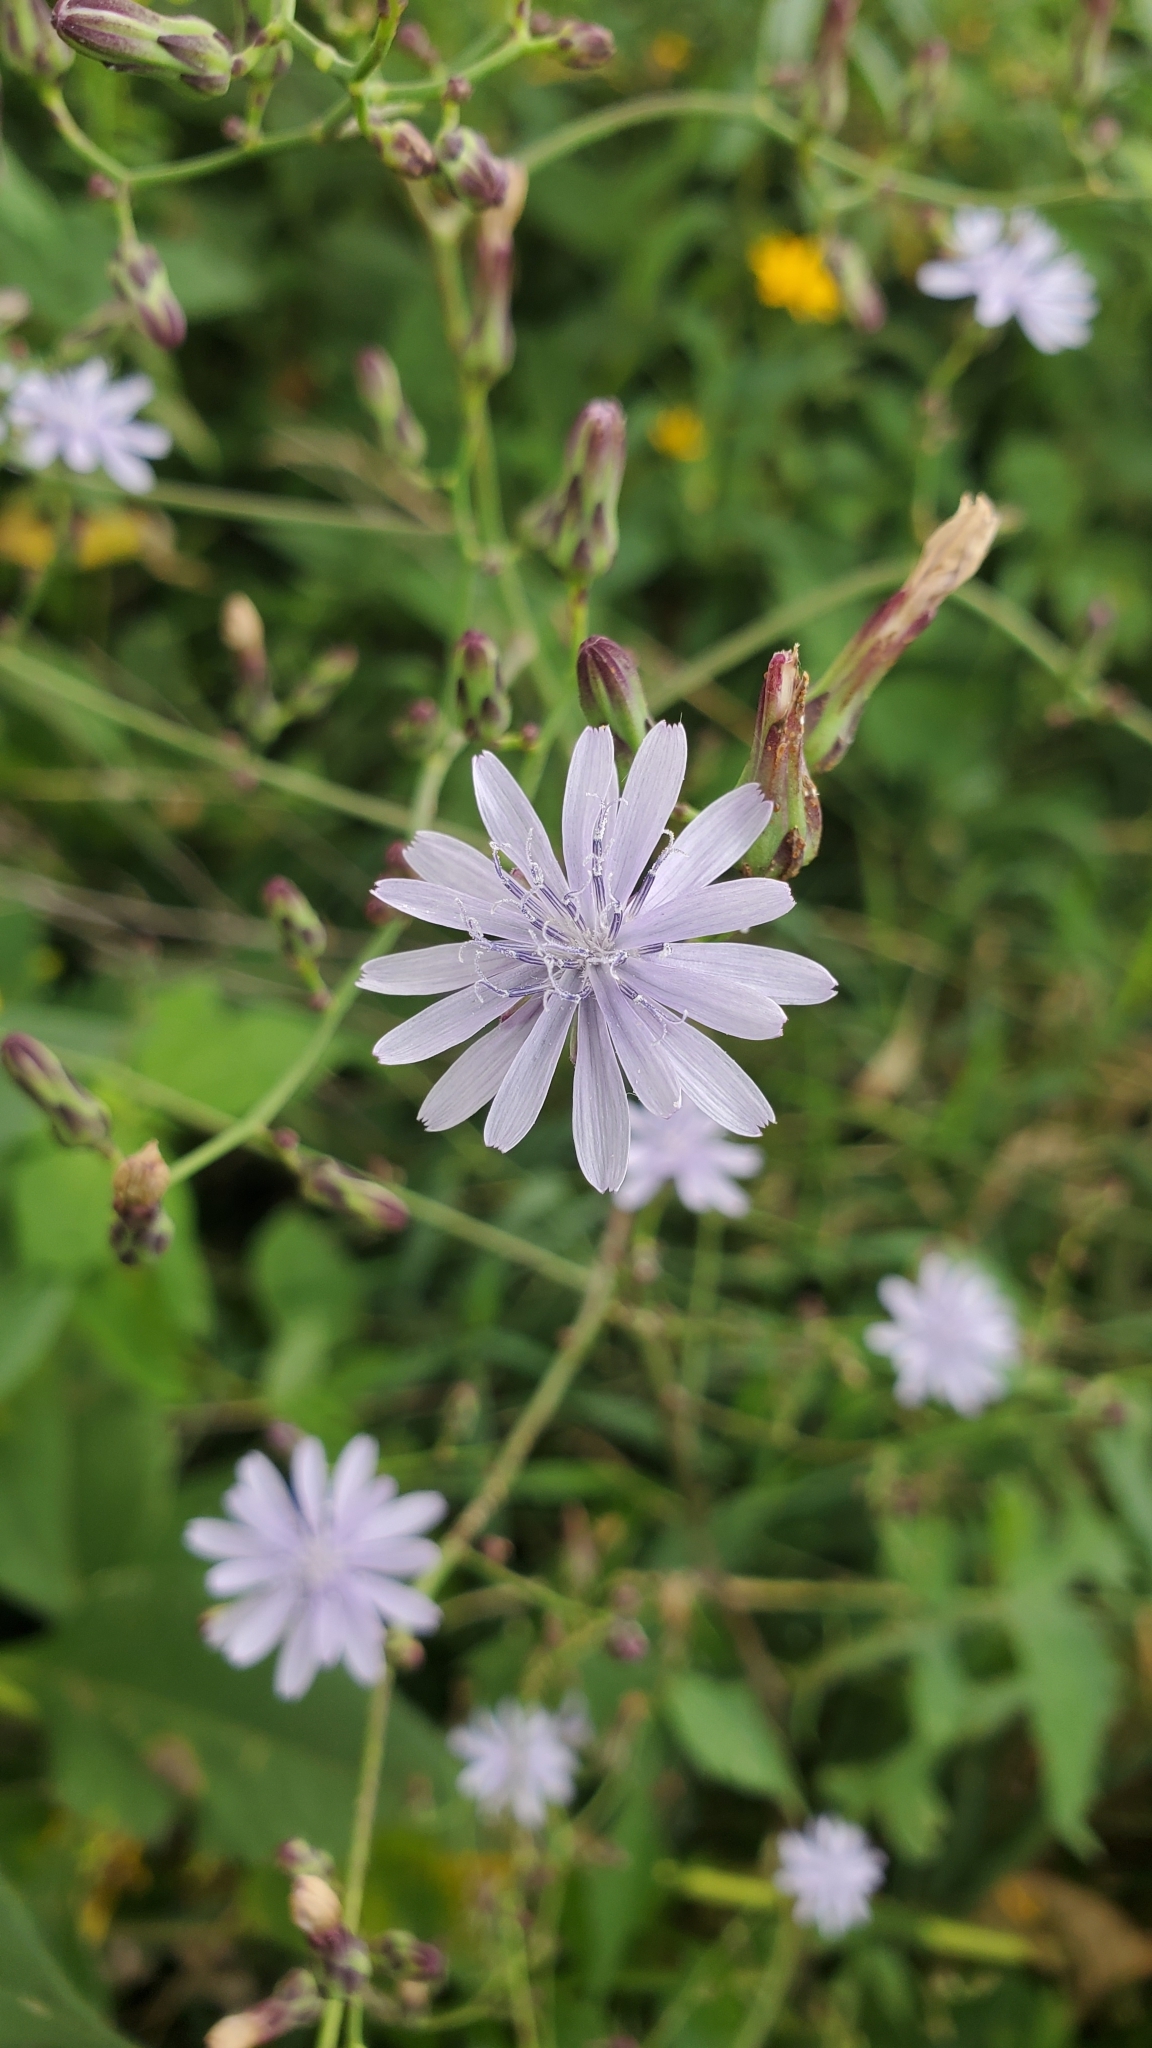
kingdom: Plantae
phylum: Tracheophyta
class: Magnoliopsida
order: Asterales
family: Asteraceae
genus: Lactuca
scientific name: Lactuca floridana
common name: Woodland lettuce
